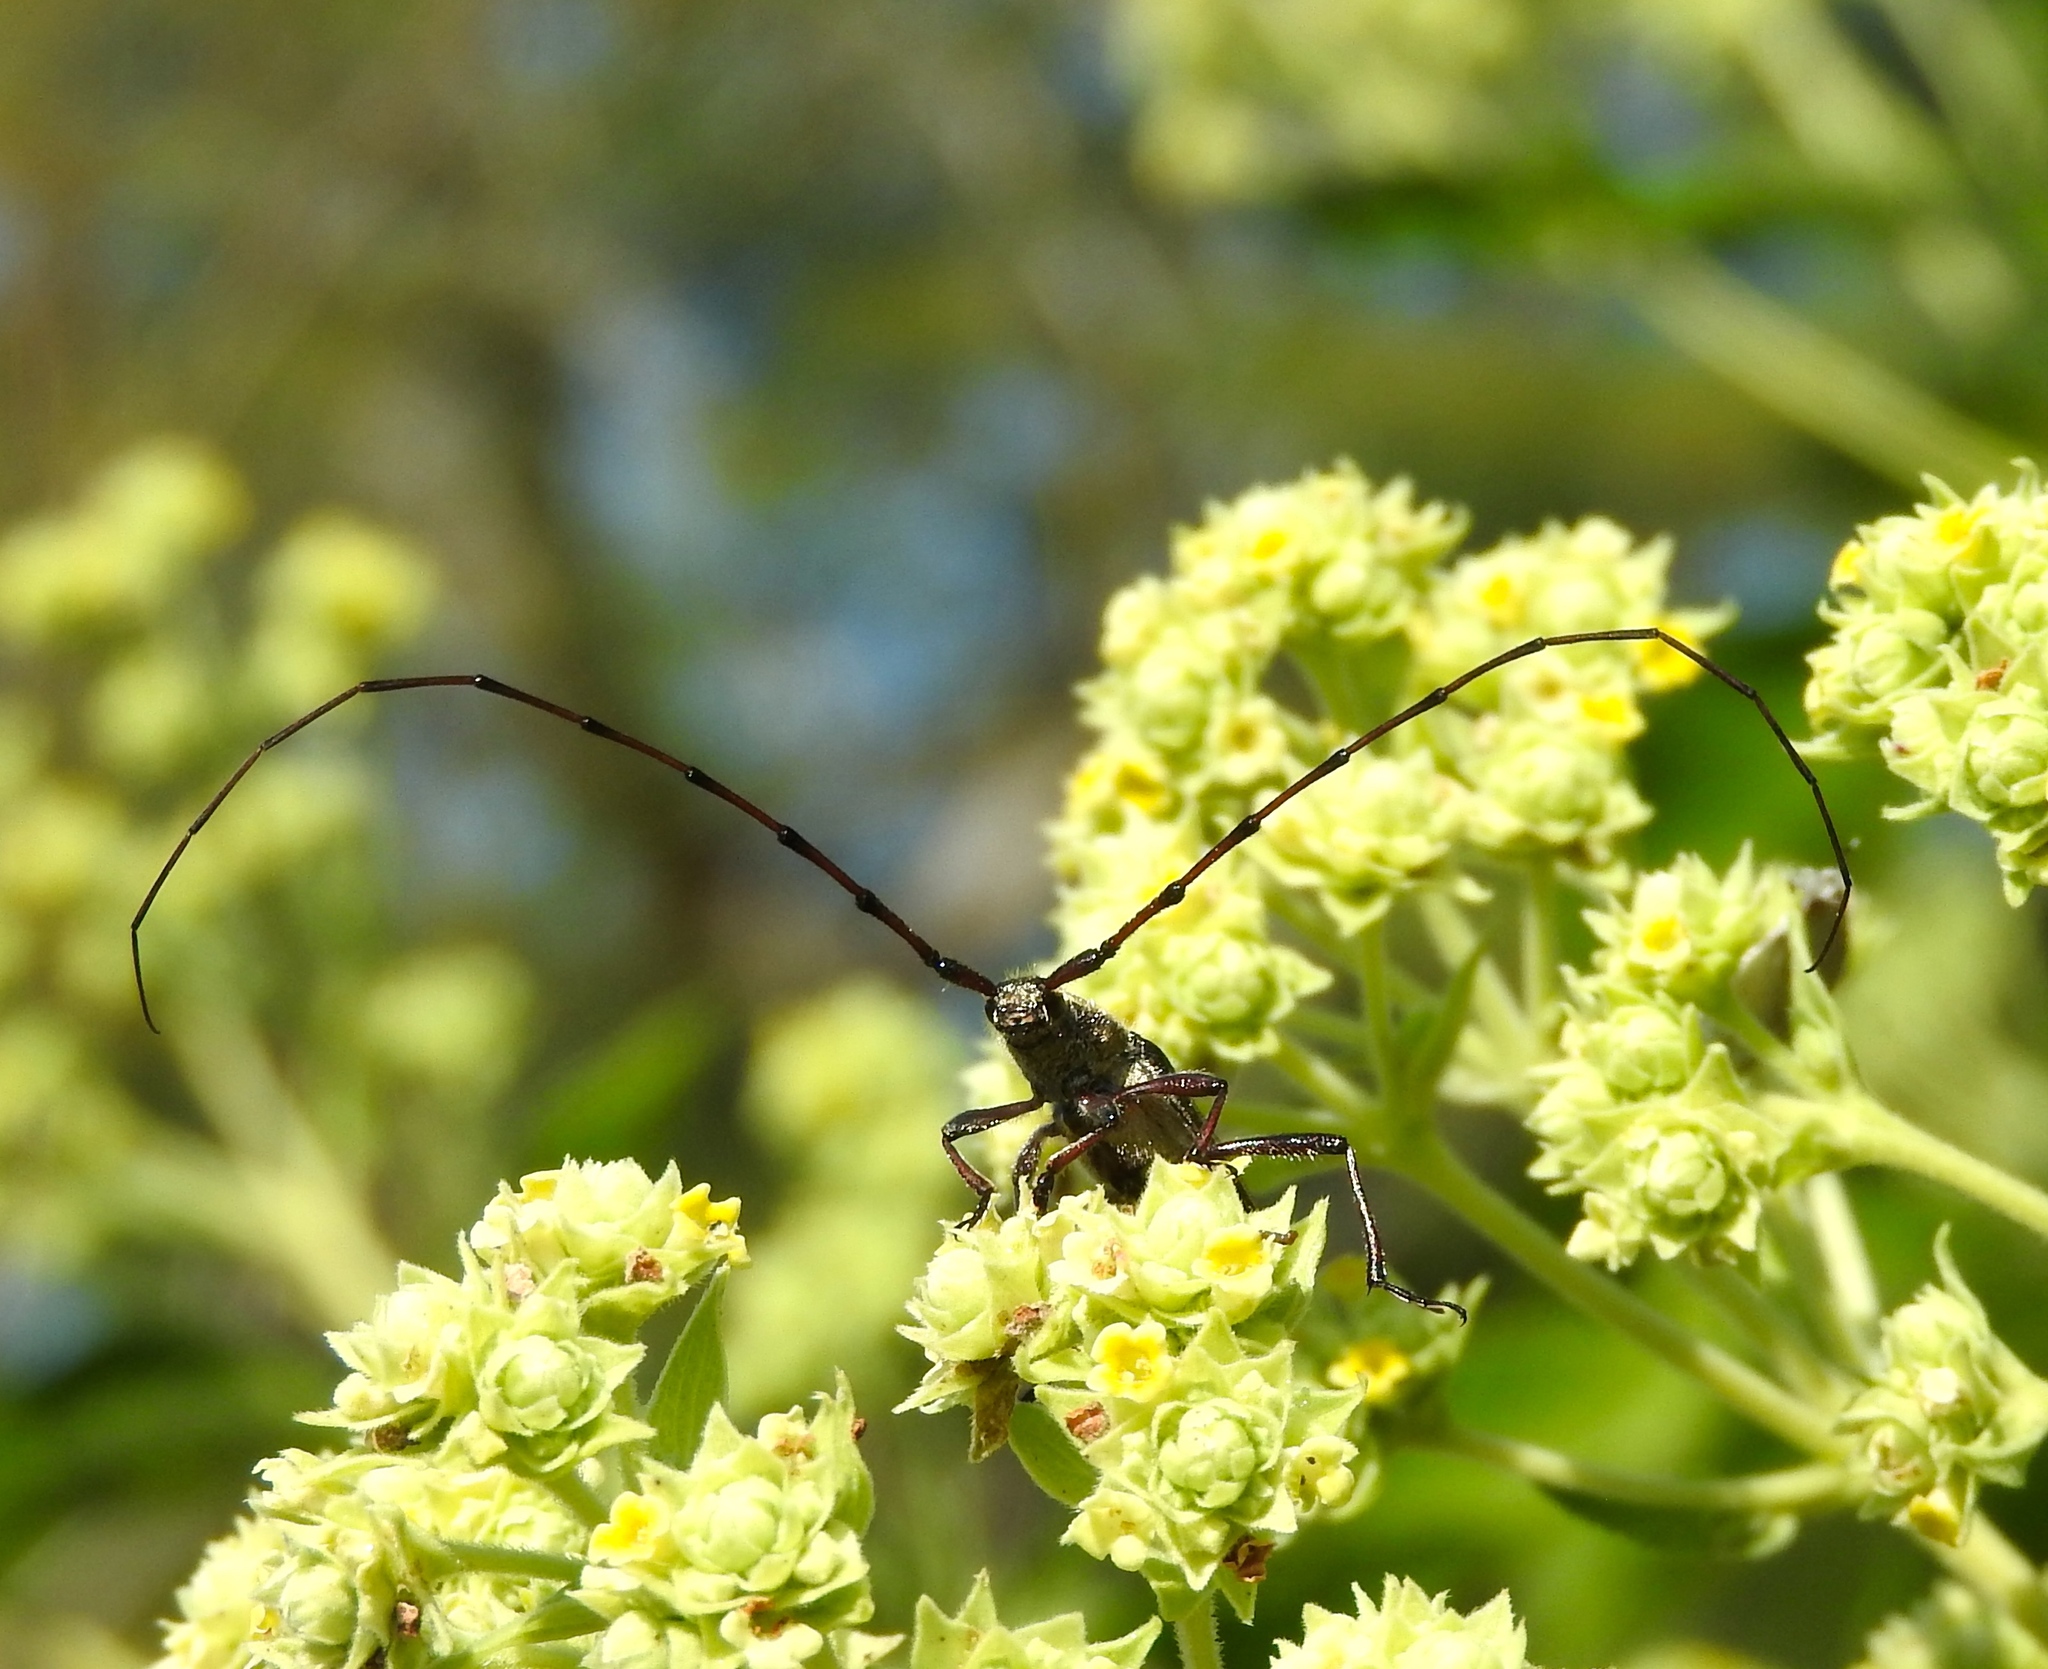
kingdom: Animalia
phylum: Arthropoda
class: Insecta
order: Coleoptera
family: Cerambycidae
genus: Sphaenothecus
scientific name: Sphaenothecus maccartyi
